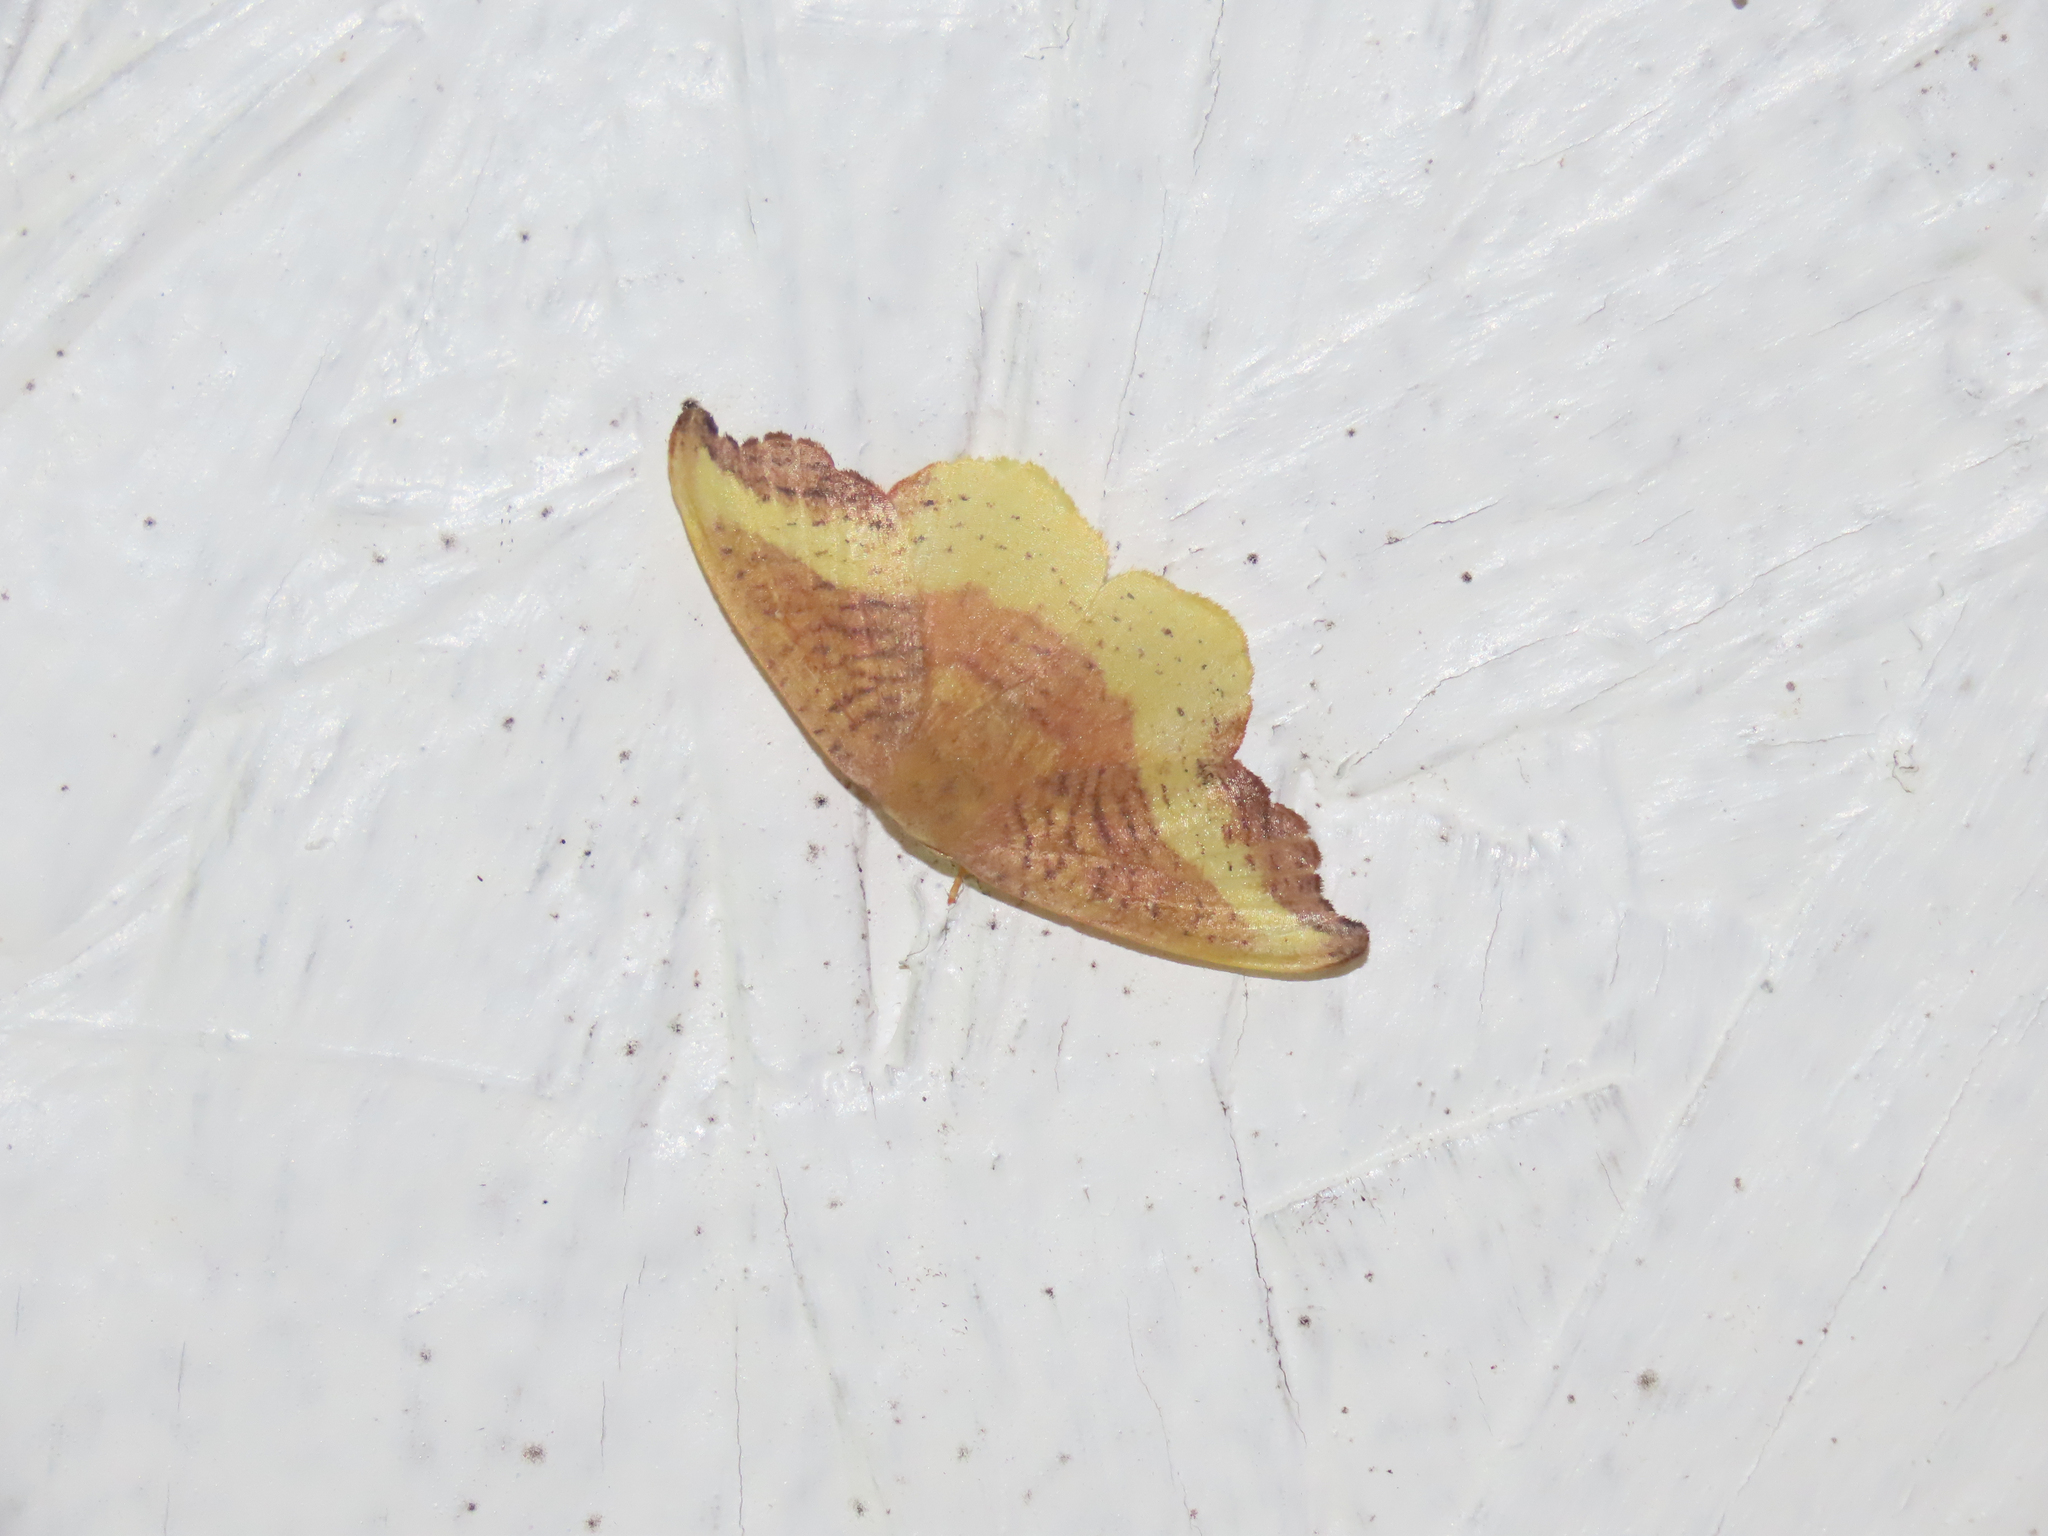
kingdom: Animalia
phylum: Arthropoda
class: Insecta
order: Lepidoptera
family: Drepanidae
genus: Oreta
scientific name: Oreta rosea
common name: Rose hooktip
